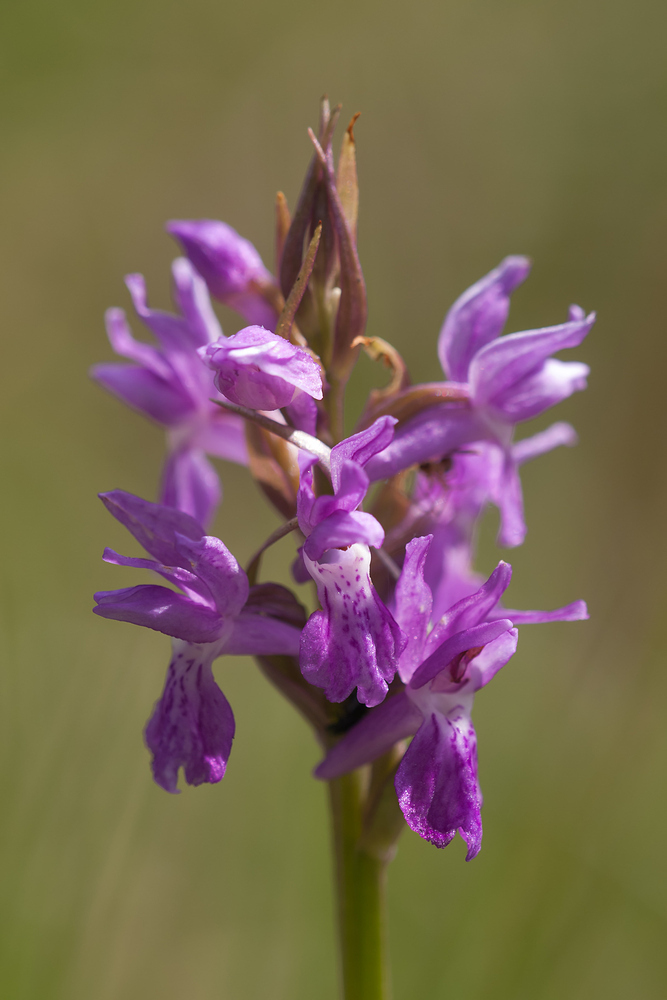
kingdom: Plantae
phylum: Tracheophyta
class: Liliopsida
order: Asparagales
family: Orchidaceae
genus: Dactylorhiza
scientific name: Dactylorhiza majalis
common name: Marsh orchid
